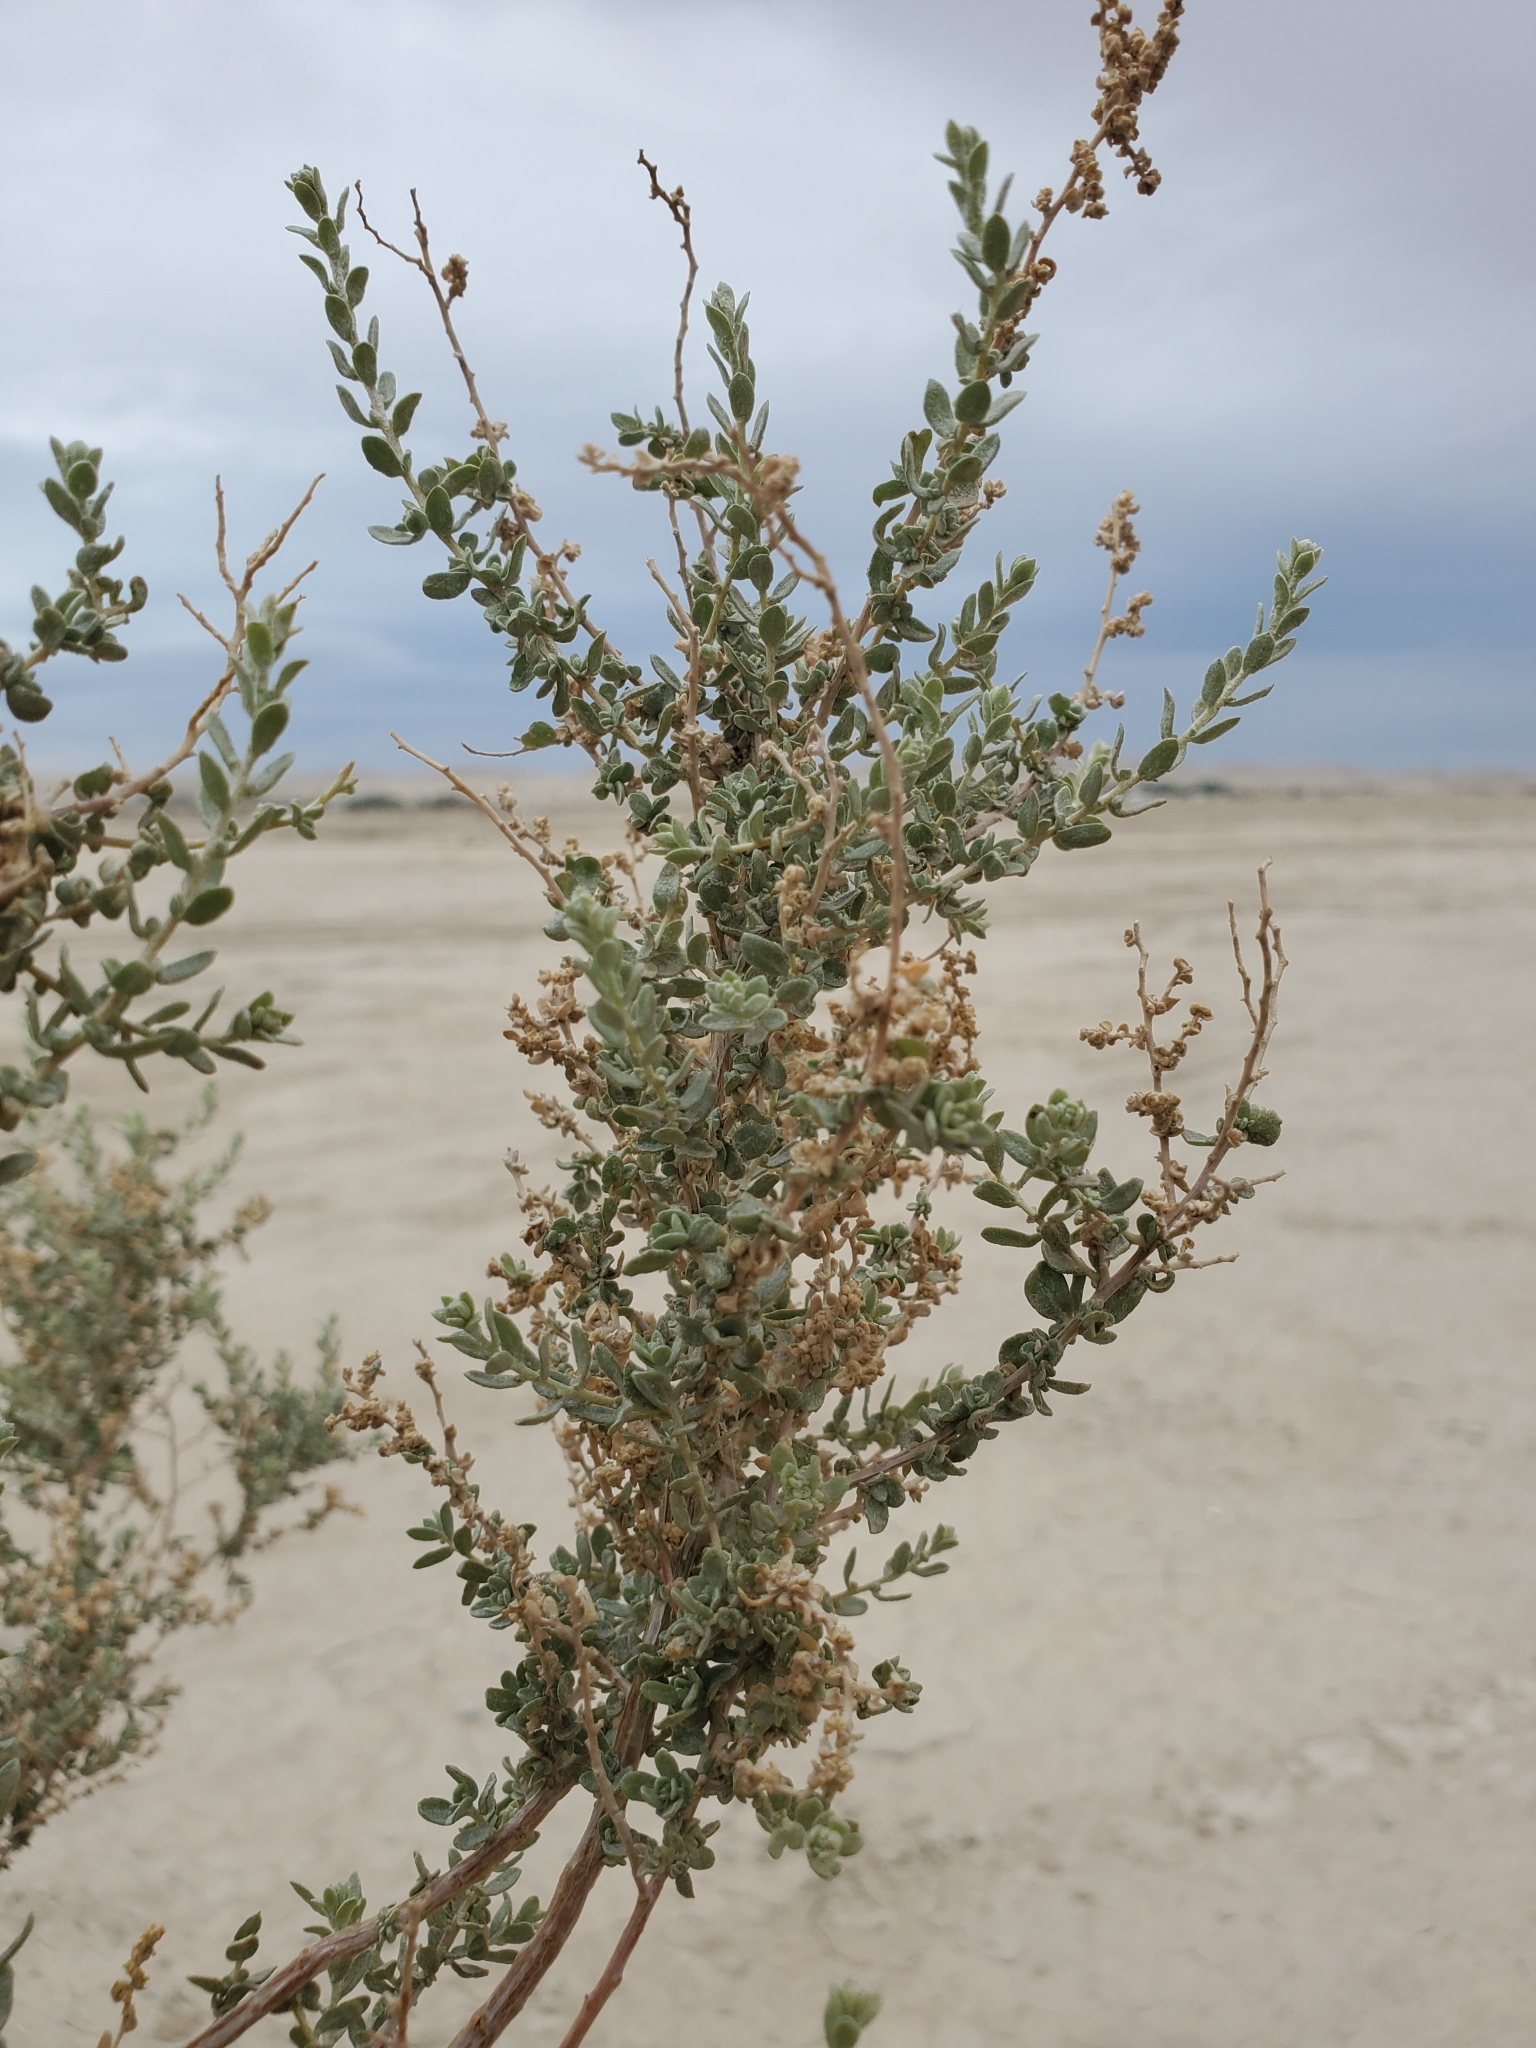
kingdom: Plantae
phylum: Tracheophyta
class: Magnoliopsida
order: Caryophyllales
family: Amaranthaceae
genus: Atriplex
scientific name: Atriplex polycarpa
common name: Desert saltbush
